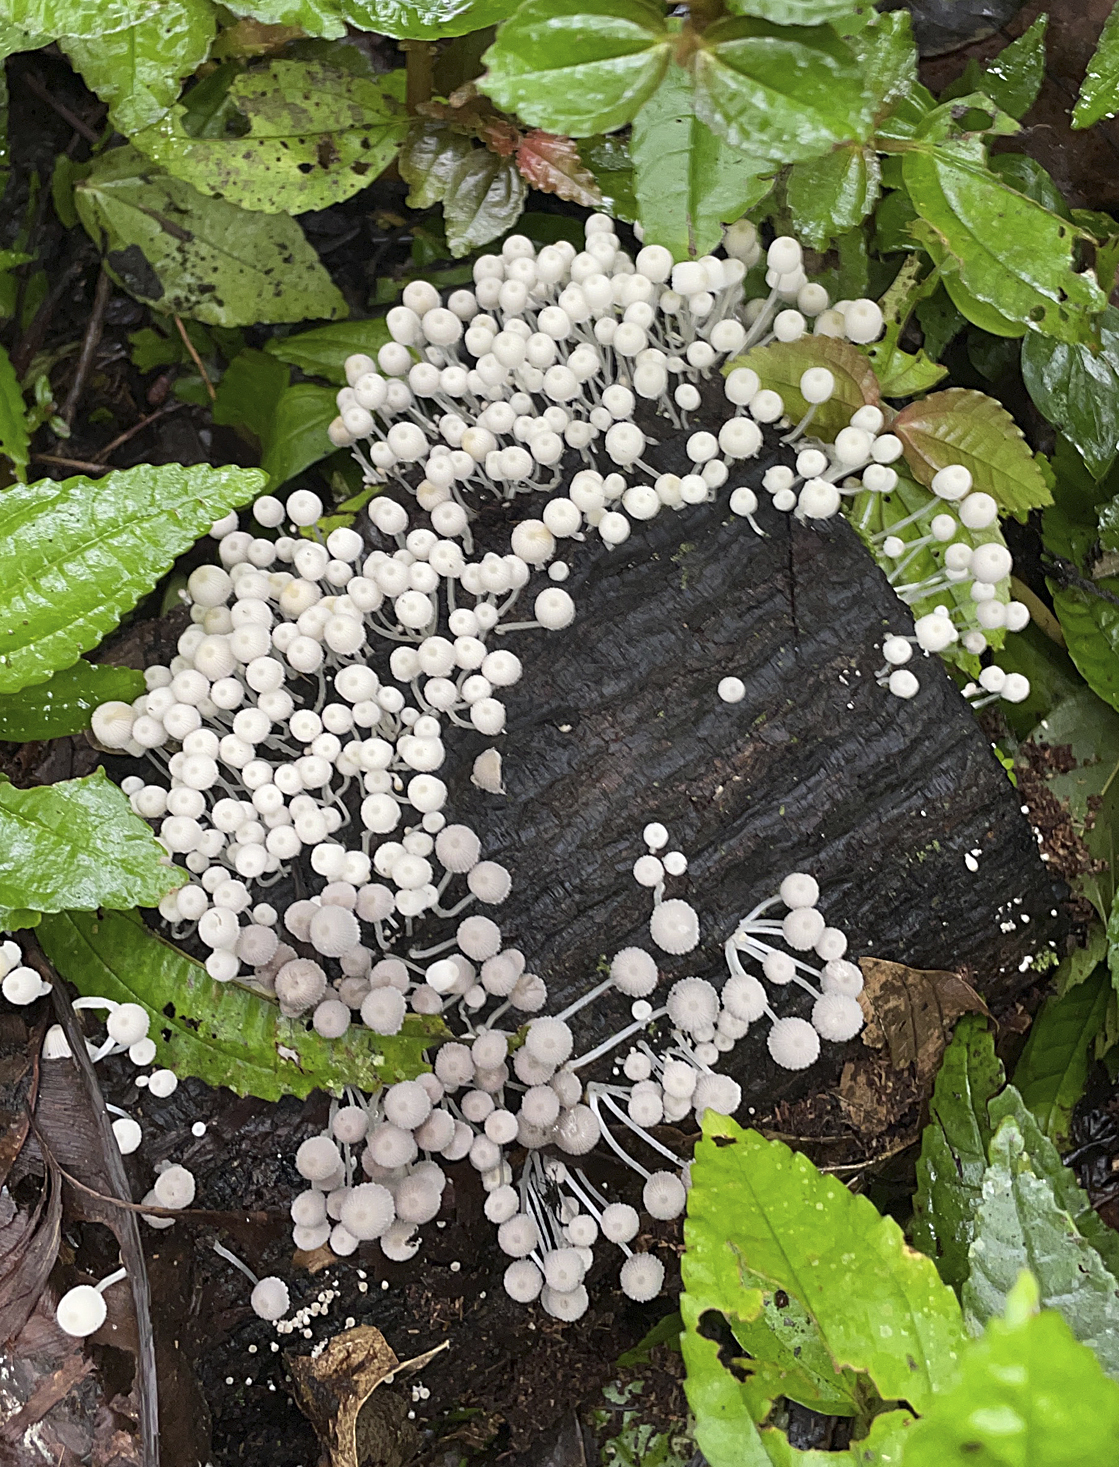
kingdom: Fungi
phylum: Basidiomycota
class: Agaricomycetes
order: Agaricales
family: Psathyrellaceae
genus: Coprinellus
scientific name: Coprinellus disseminatus
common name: Fairies' bonnets
